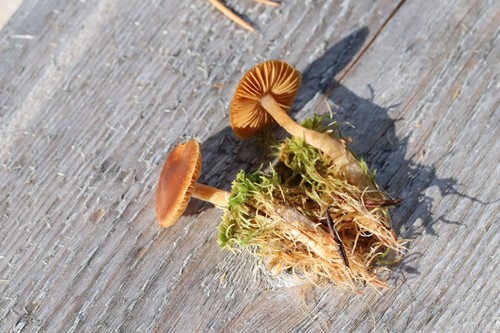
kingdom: Fungi
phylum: Basidiomycota
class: Agaricomycetes
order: Agaricales
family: Cortinariaceae
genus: Cortinarius
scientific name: Cortinarius biformis
